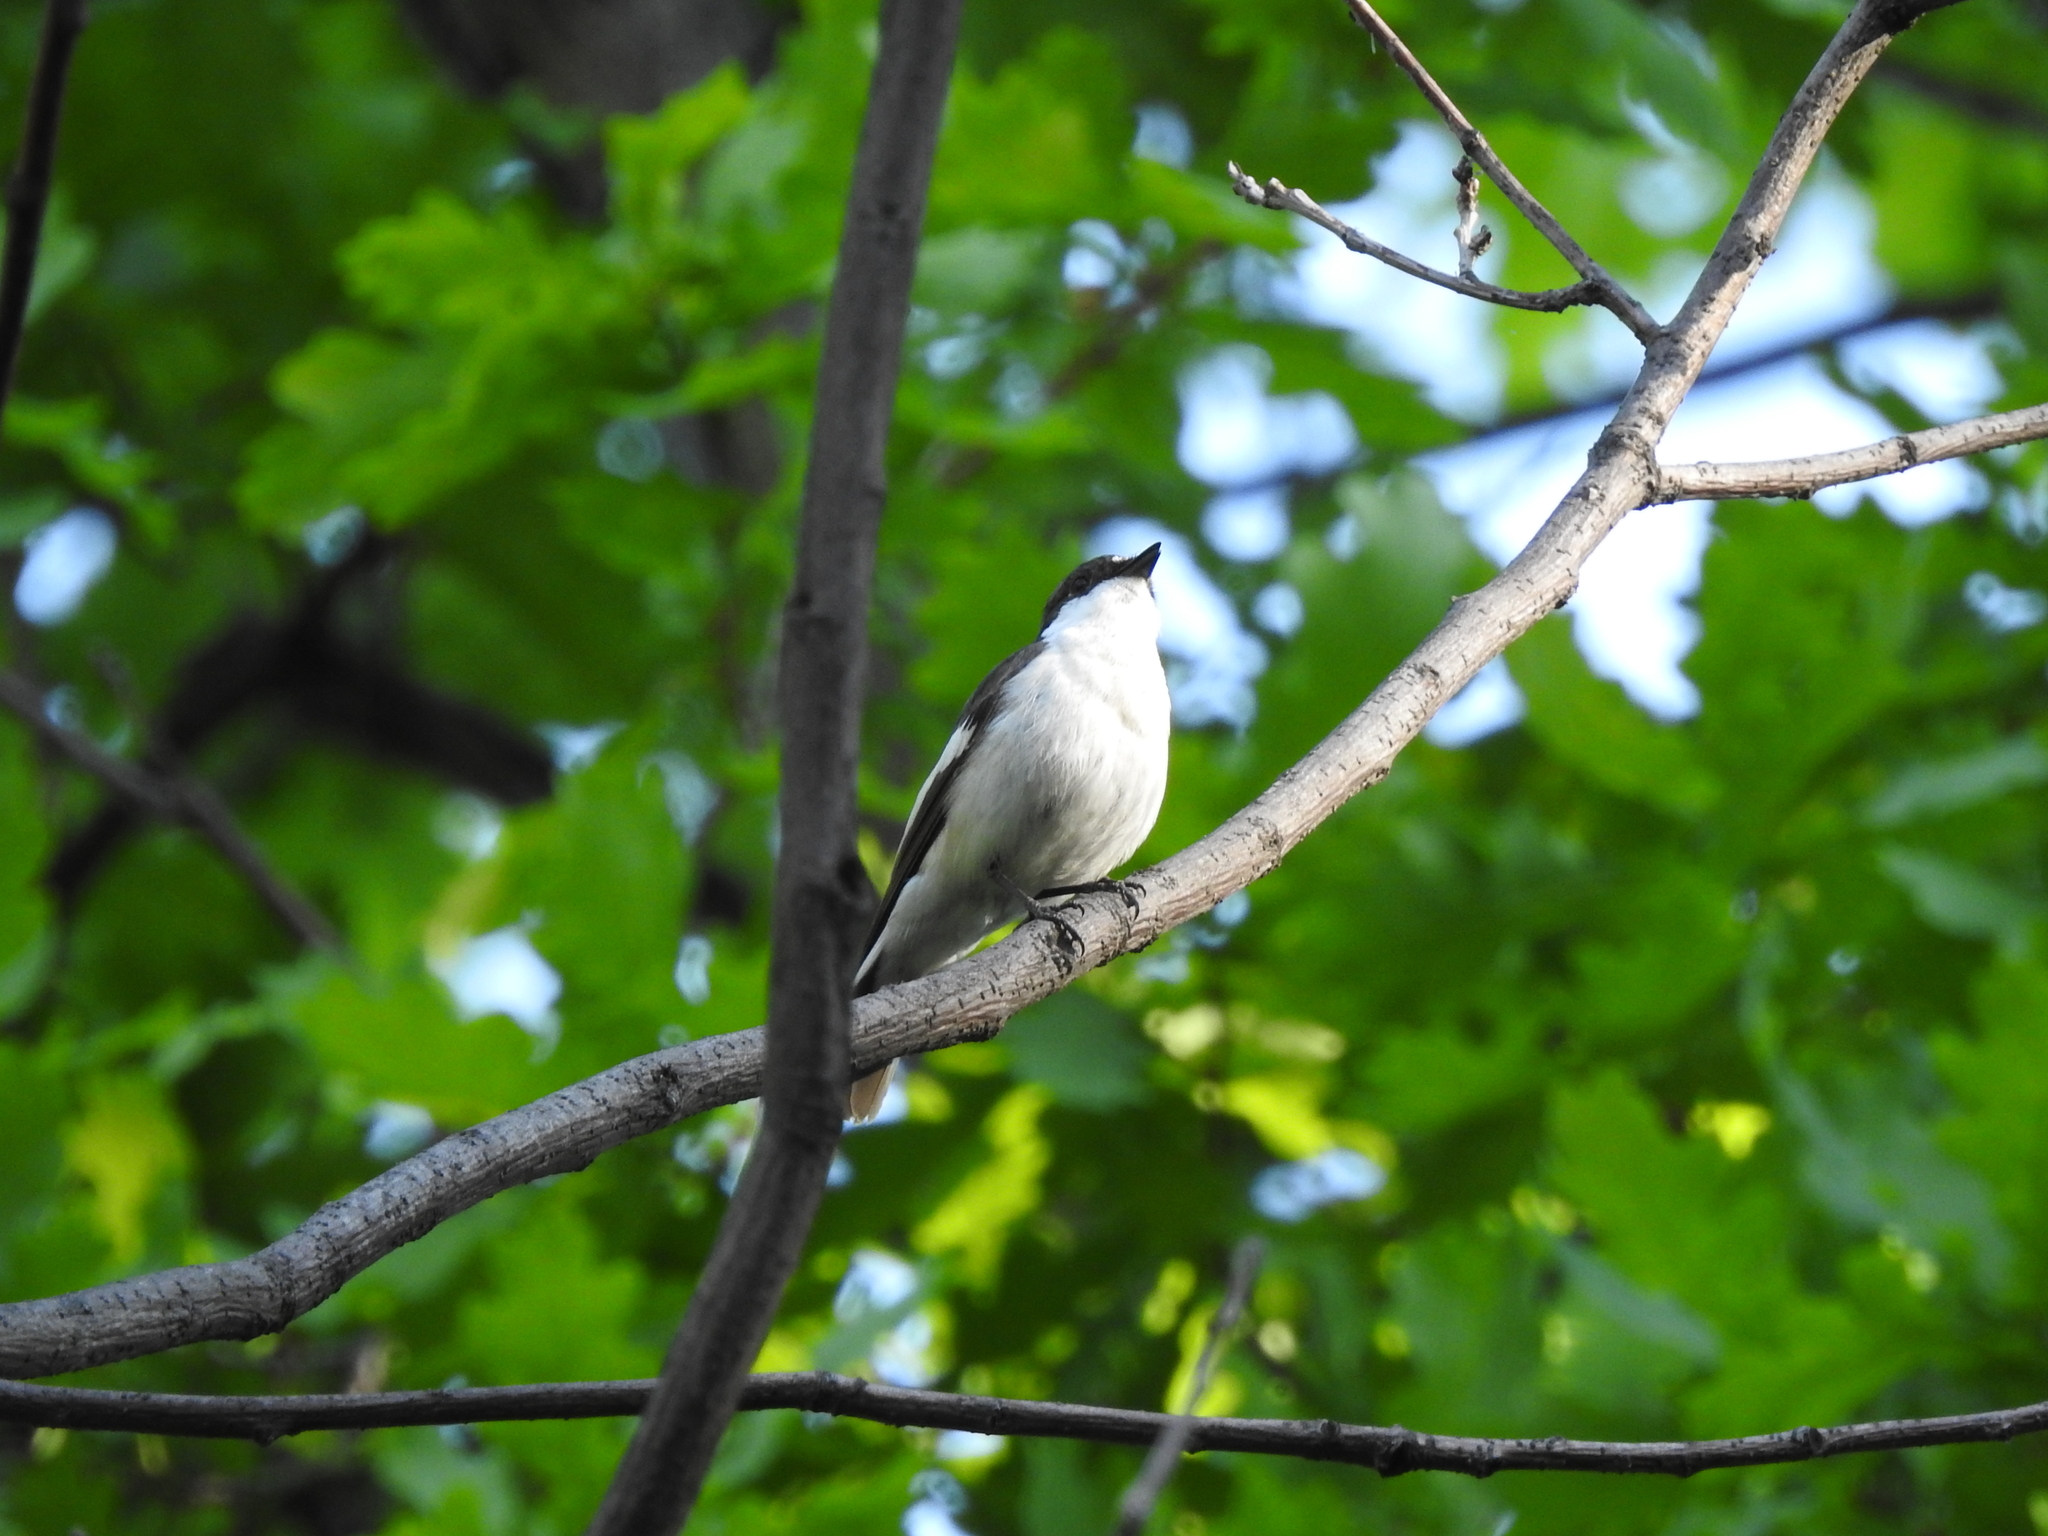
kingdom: Animalia
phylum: Chordata
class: Aves
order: Passeriformes
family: Muscicapidae
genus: Ficedula
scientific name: Ficedula hypoleuca
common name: European pied flycatcher
